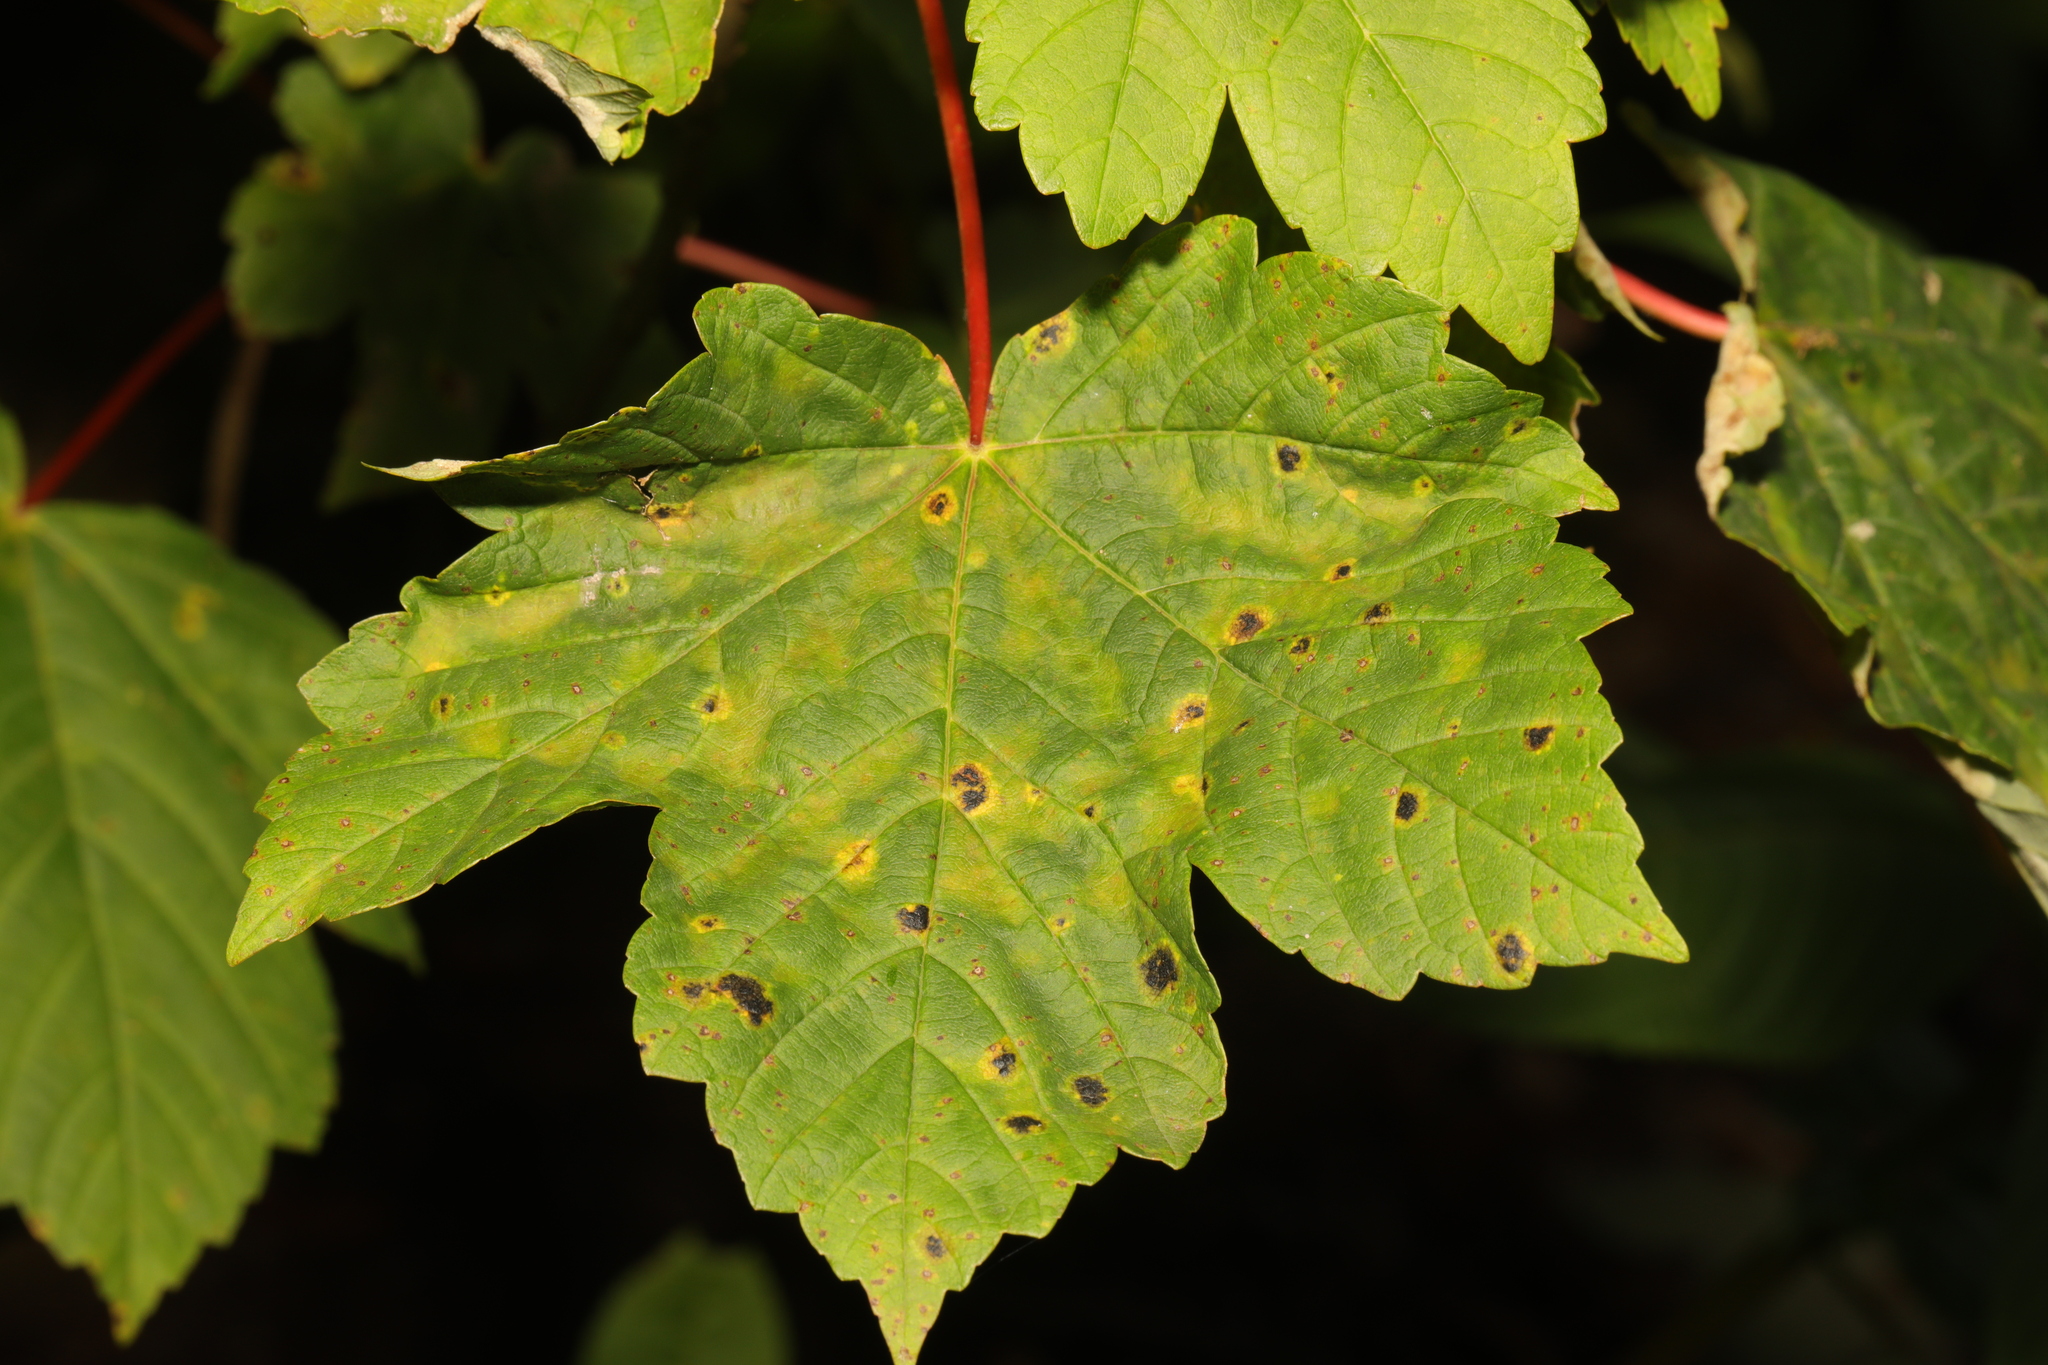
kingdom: Plantae
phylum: Tracheophyta
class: Magnoliopsida
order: Sapindales
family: Sapindaceae
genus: Acer
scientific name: Acer pseudoplatanus
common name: Sycamore
